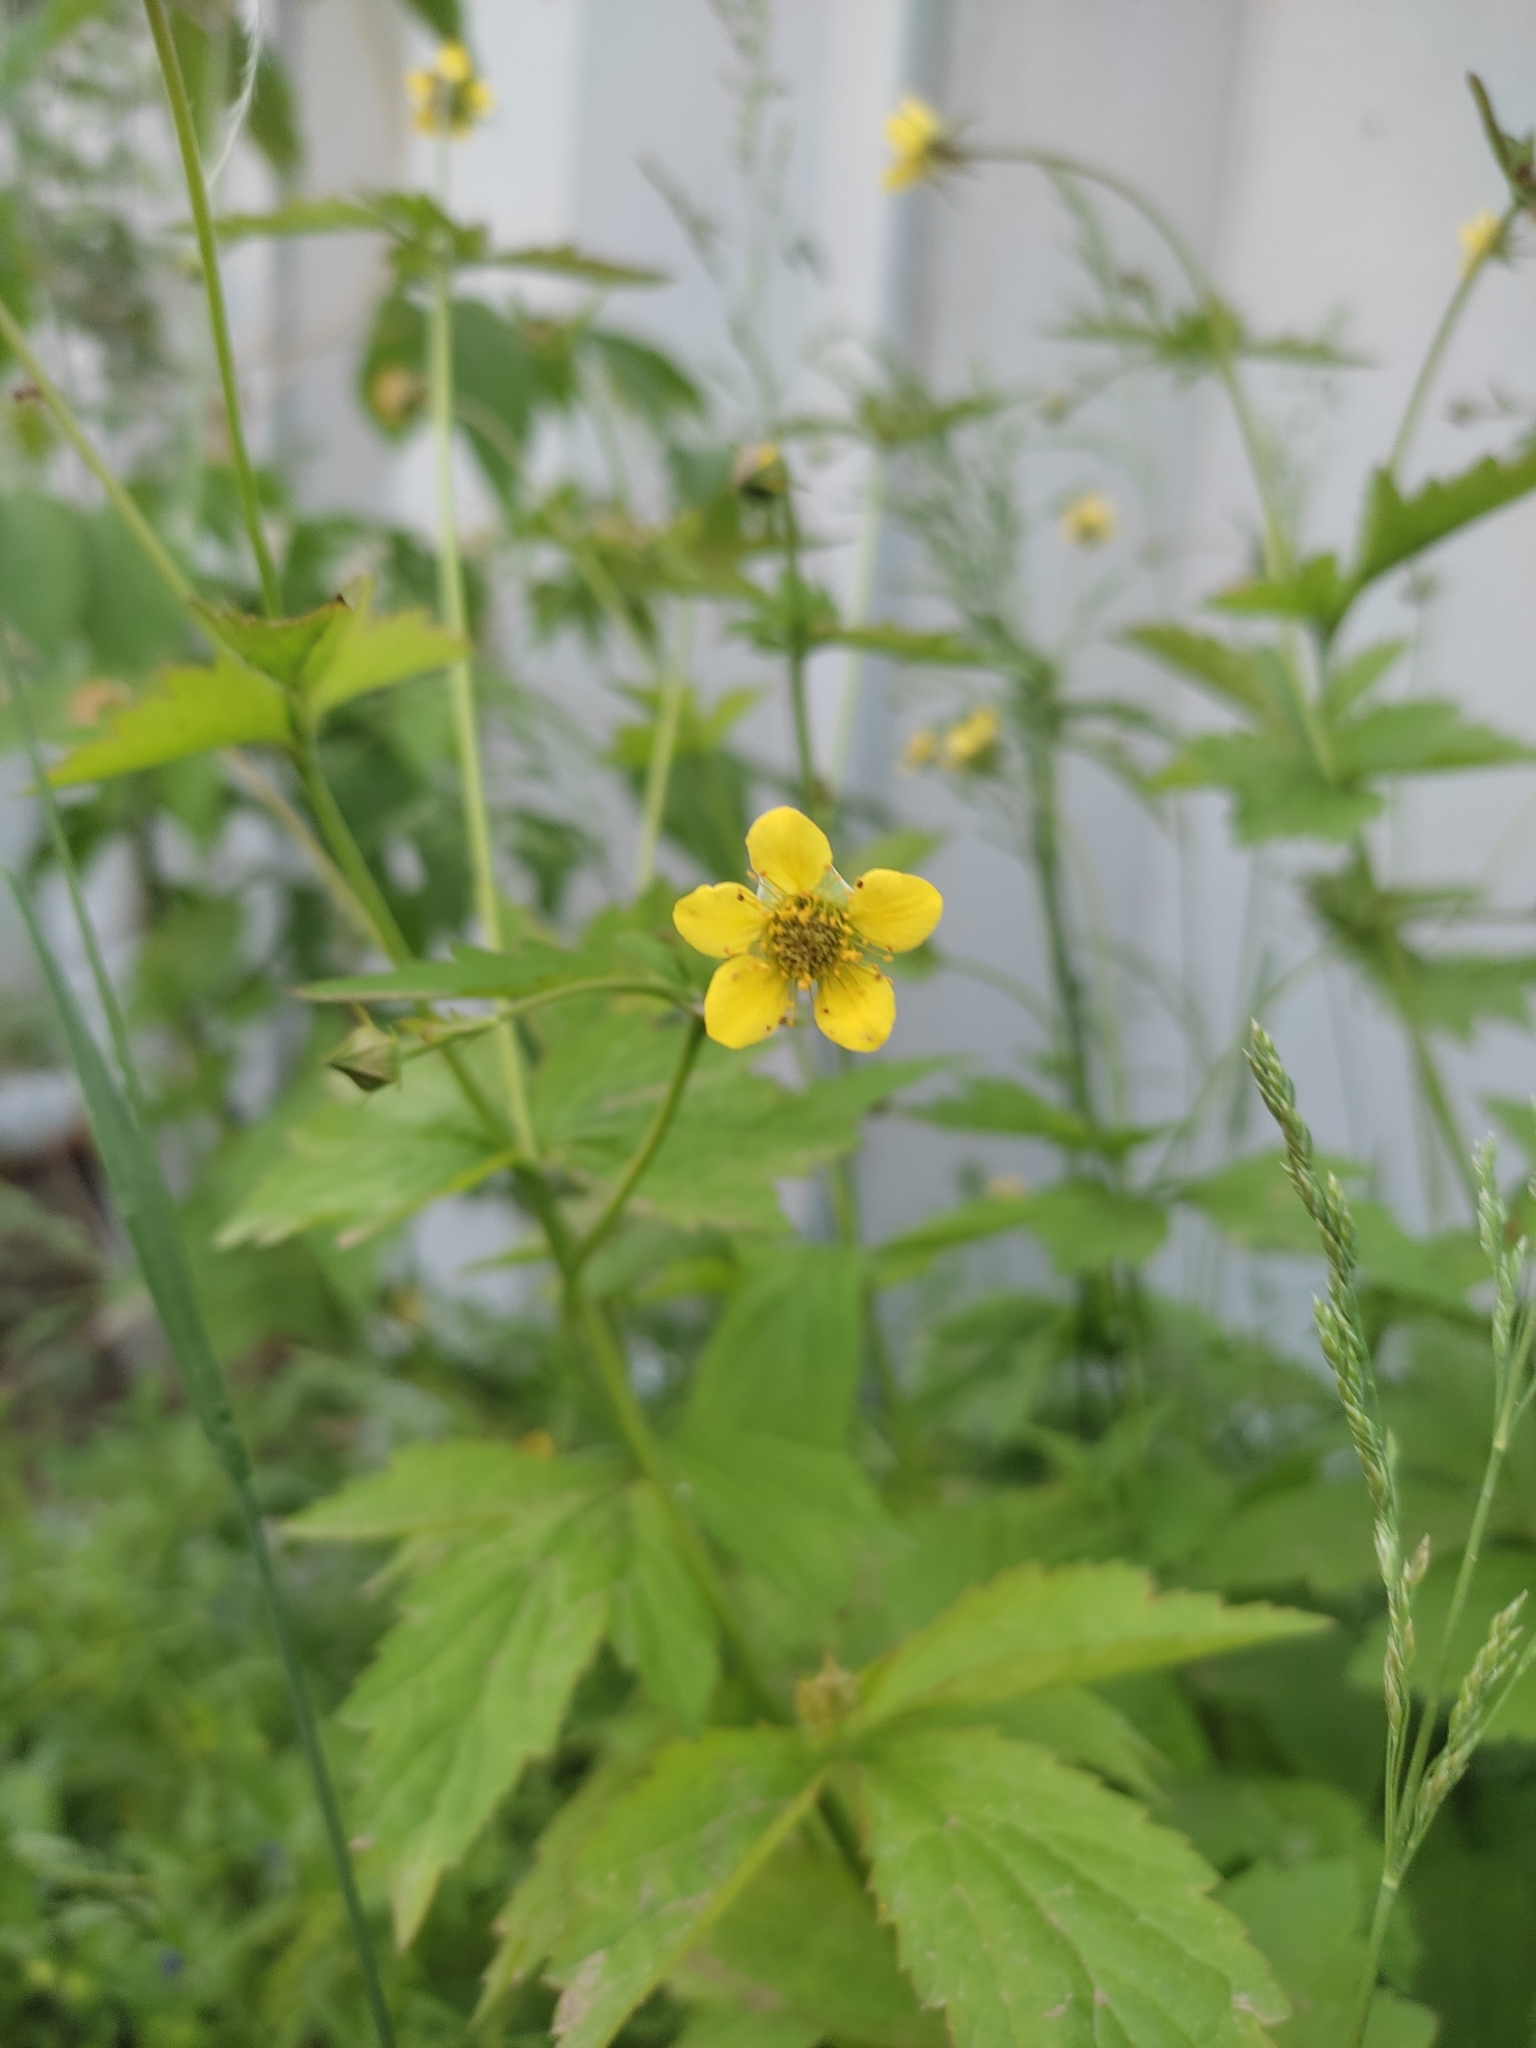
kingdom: Plantae
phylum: Tracheophyta
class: Magnoliopsida
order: Rosales
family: Rosaceae
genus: Geum
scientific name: Geum urbanum
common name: Wood avens
